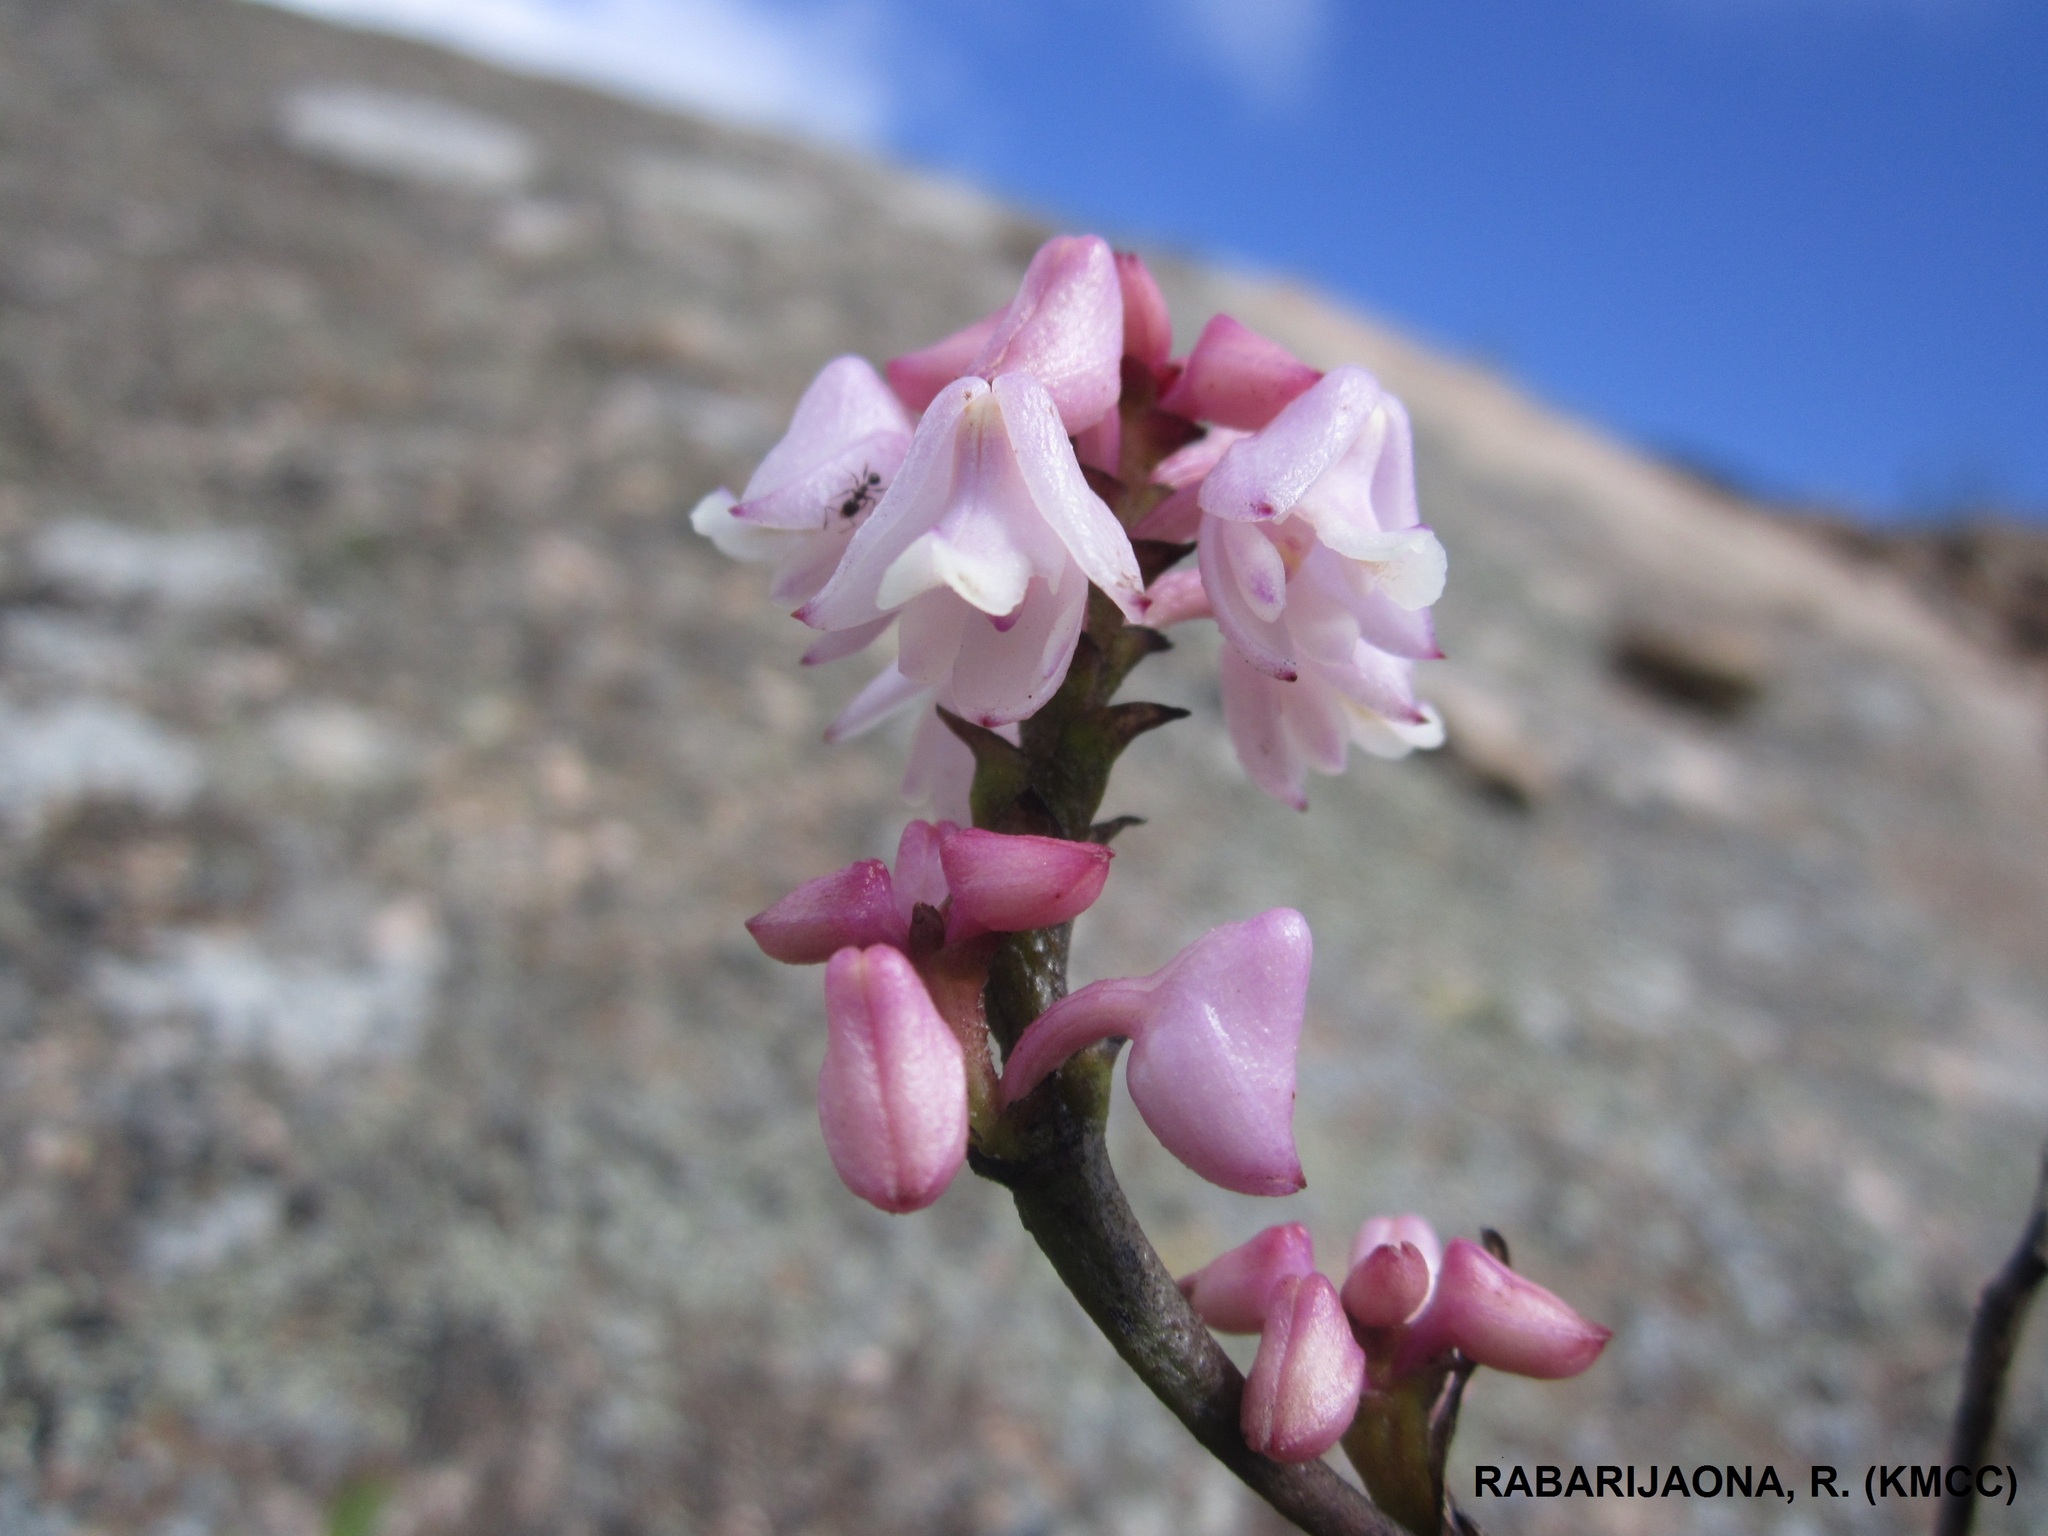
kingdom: Plantae
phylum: Tracheophyta
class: Liliopsida
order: Asparagales
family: Orchidaceae
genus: Polystachya
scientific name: Polystachya perrieri
